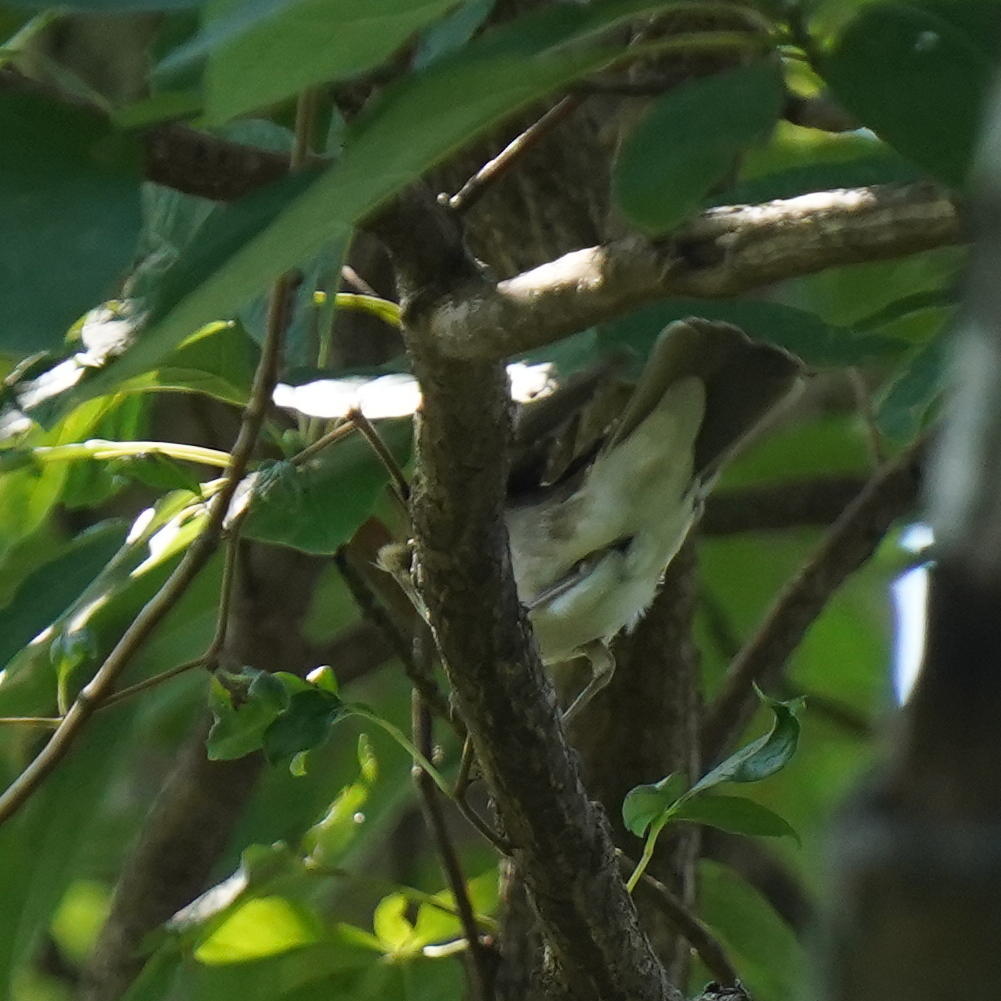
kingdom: Animalia
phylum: Chordata
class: Aves
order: Passeriformes
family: Turdidae
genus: Catharus
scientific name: Catharus ustulatus
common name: Swainson's thrush
